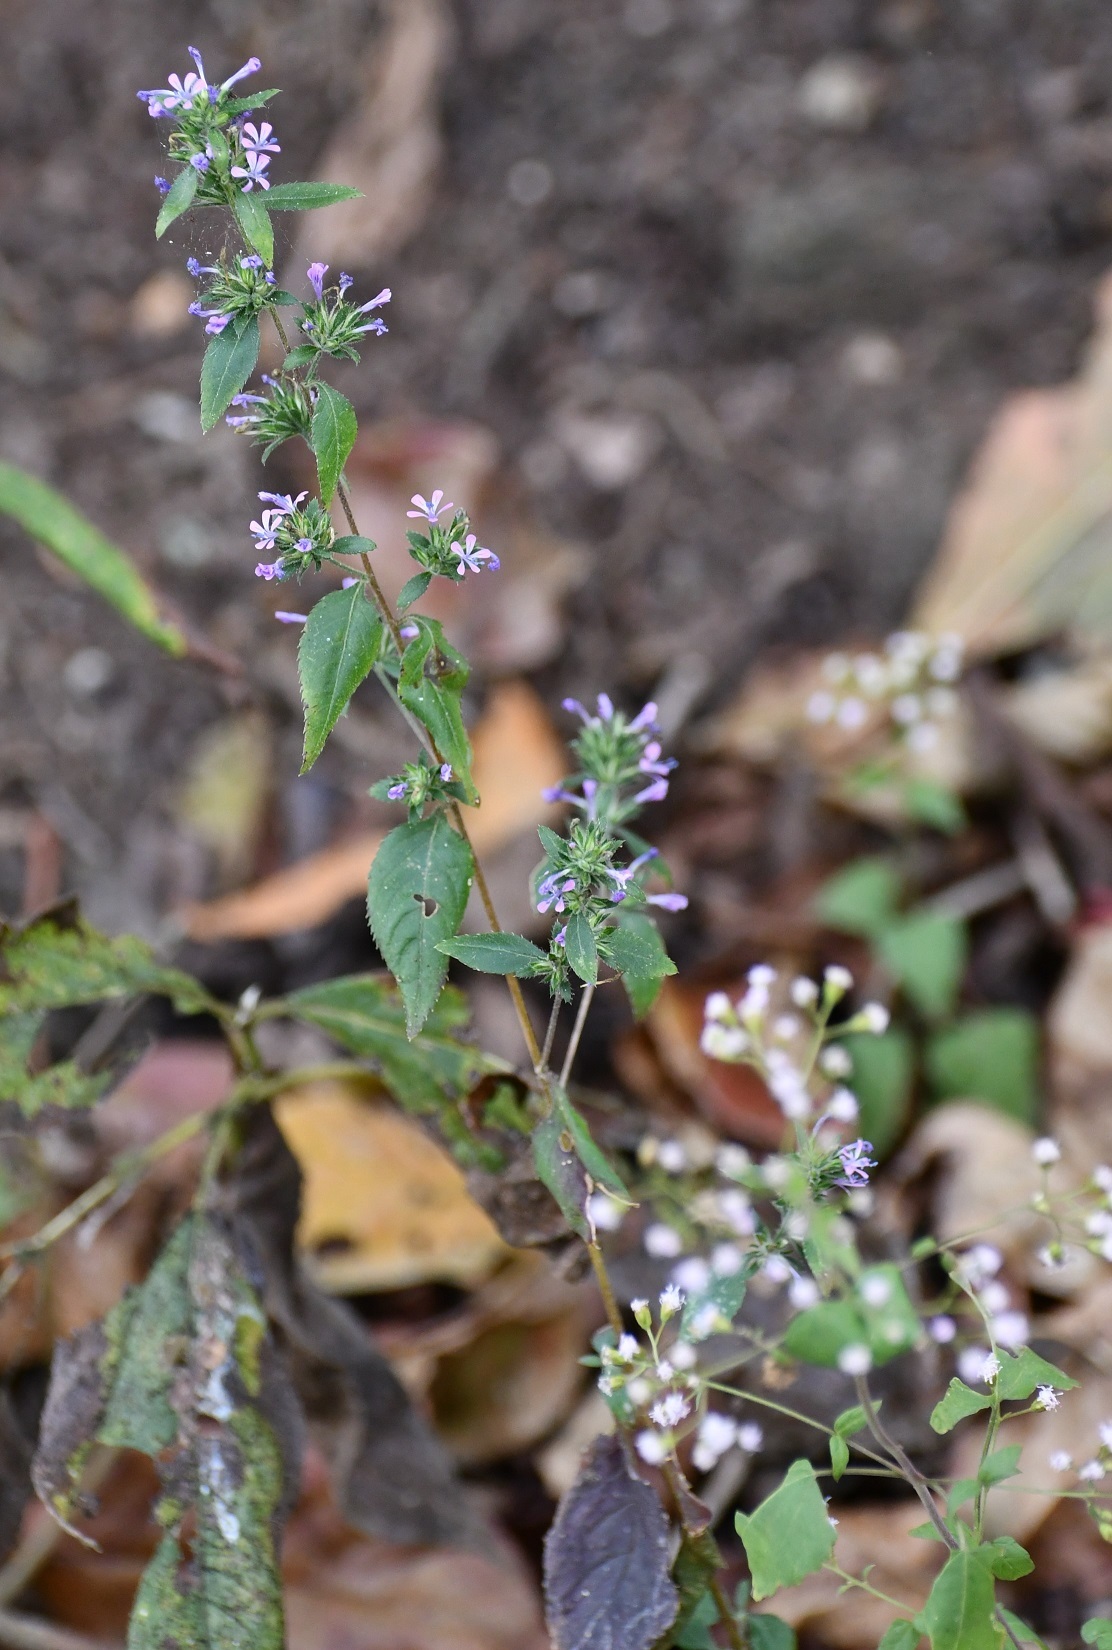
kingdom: Plantae
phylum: Tracheophyta
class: Magnoliopsida
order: Ericales
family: Polemoniaceae
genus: Loeselia
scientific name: Loeselia glandulosa
